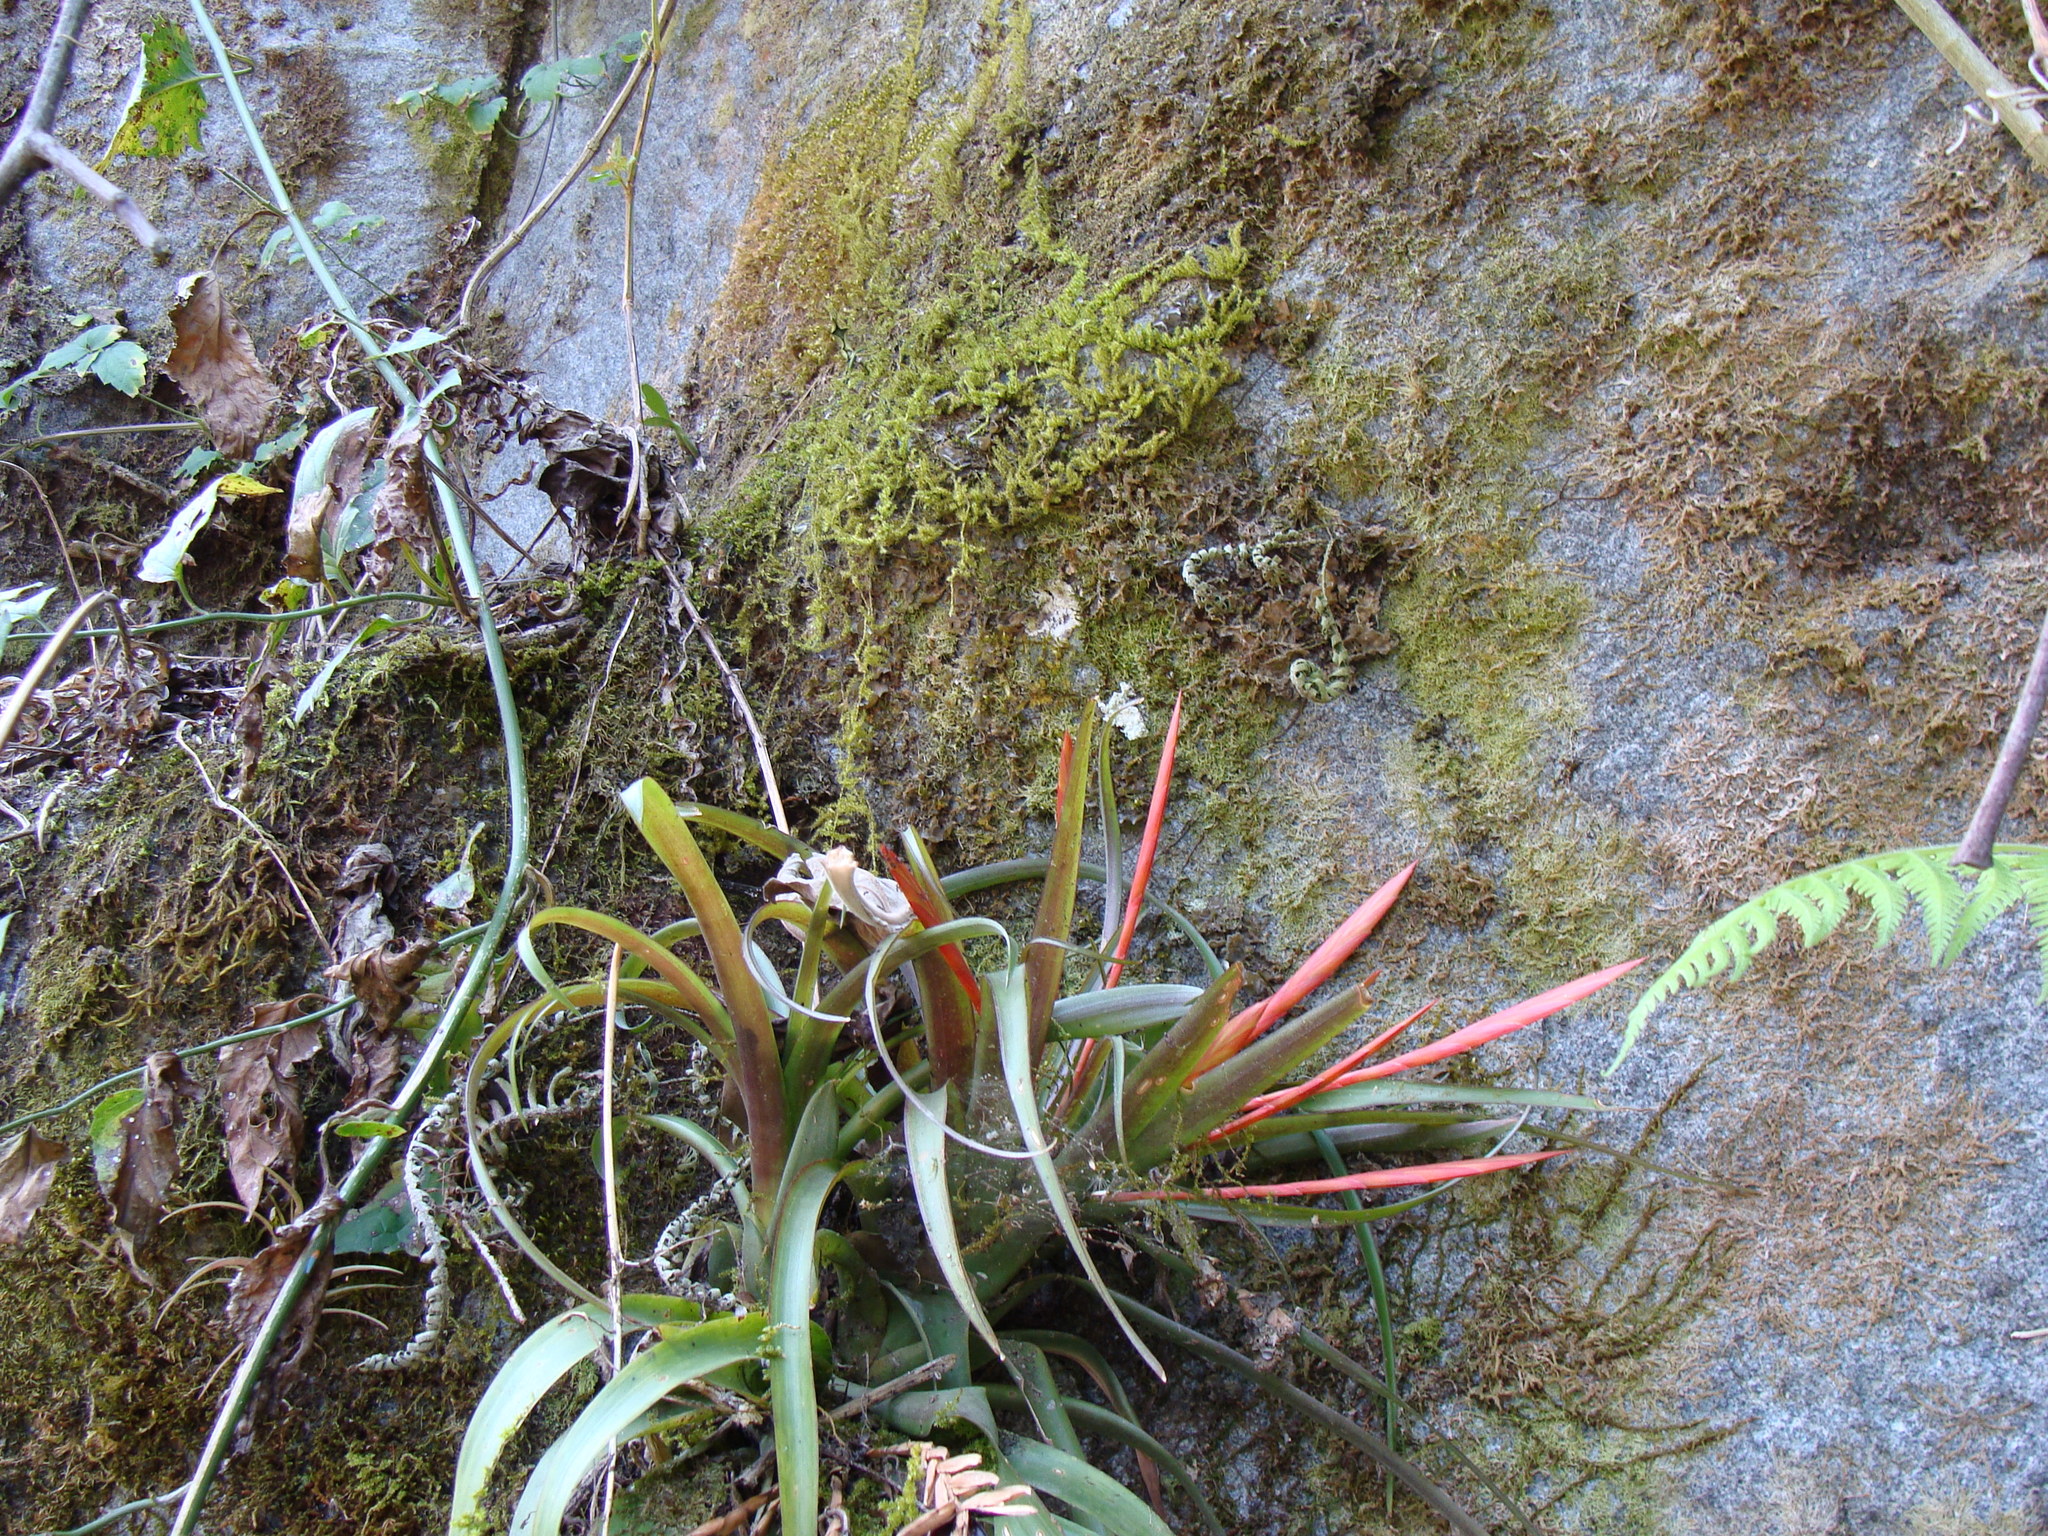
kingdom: Plantae
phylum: Tracheophyta
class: Liliopsida
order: Poales
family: Bromeliaceae
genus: Tillandsia
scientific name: Tillandsia flabellata
